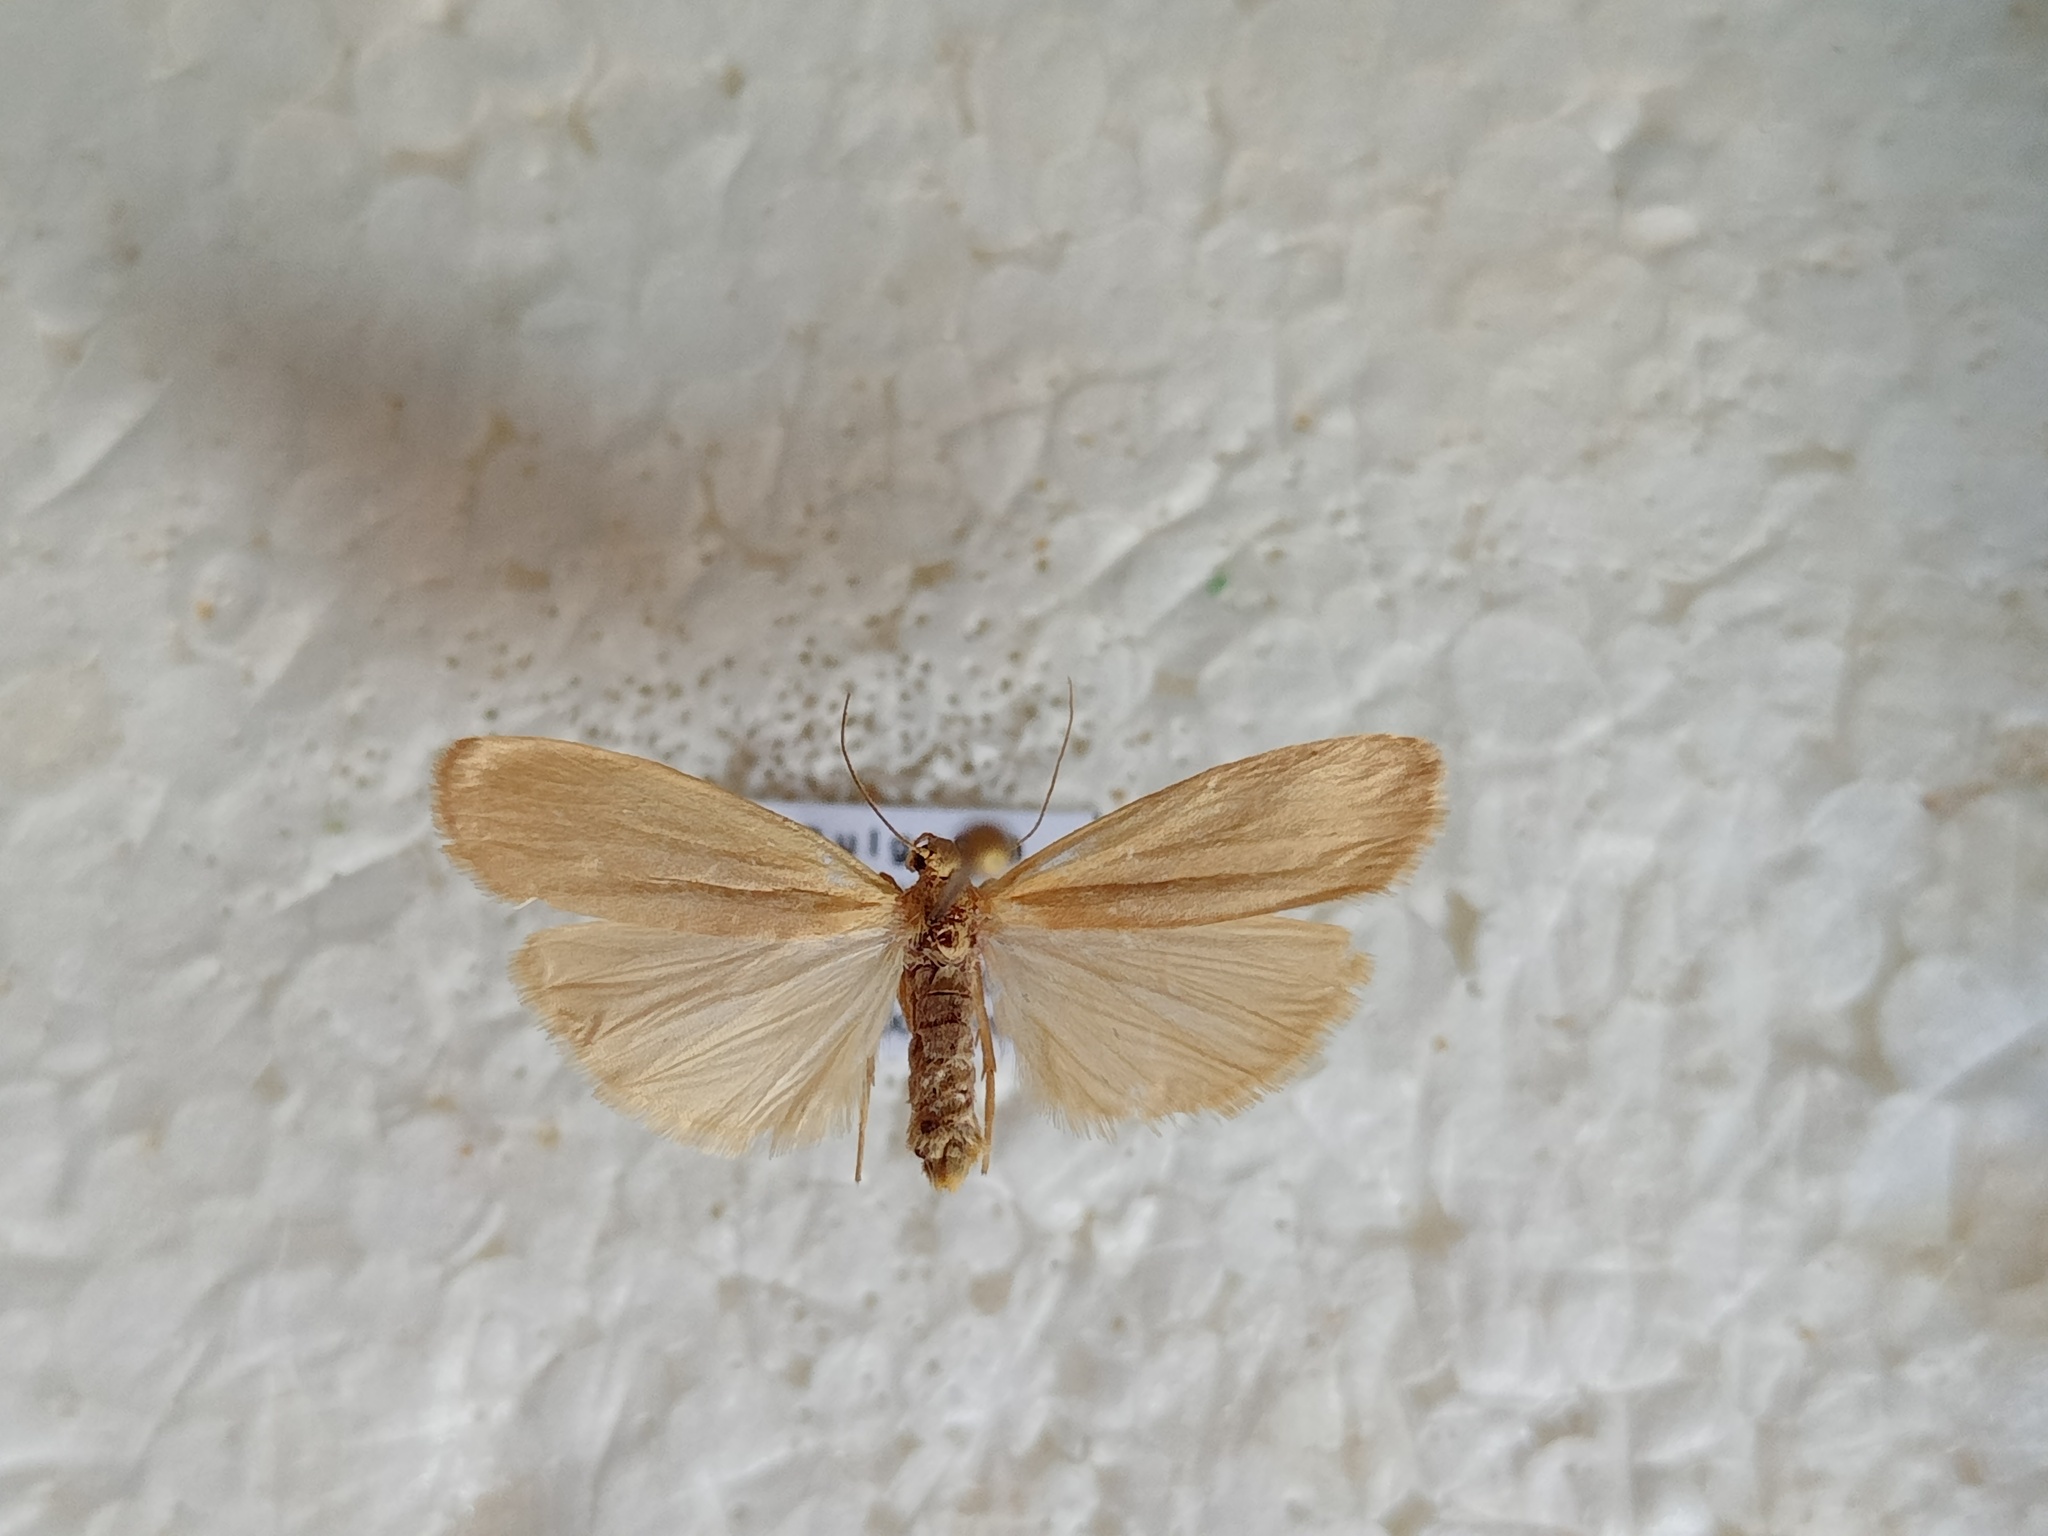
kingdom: Animalia
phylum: Arthropoda
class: Insecta
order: Lepidoptera
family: Erebidae
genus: Muscula
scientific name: Muscula muscula
